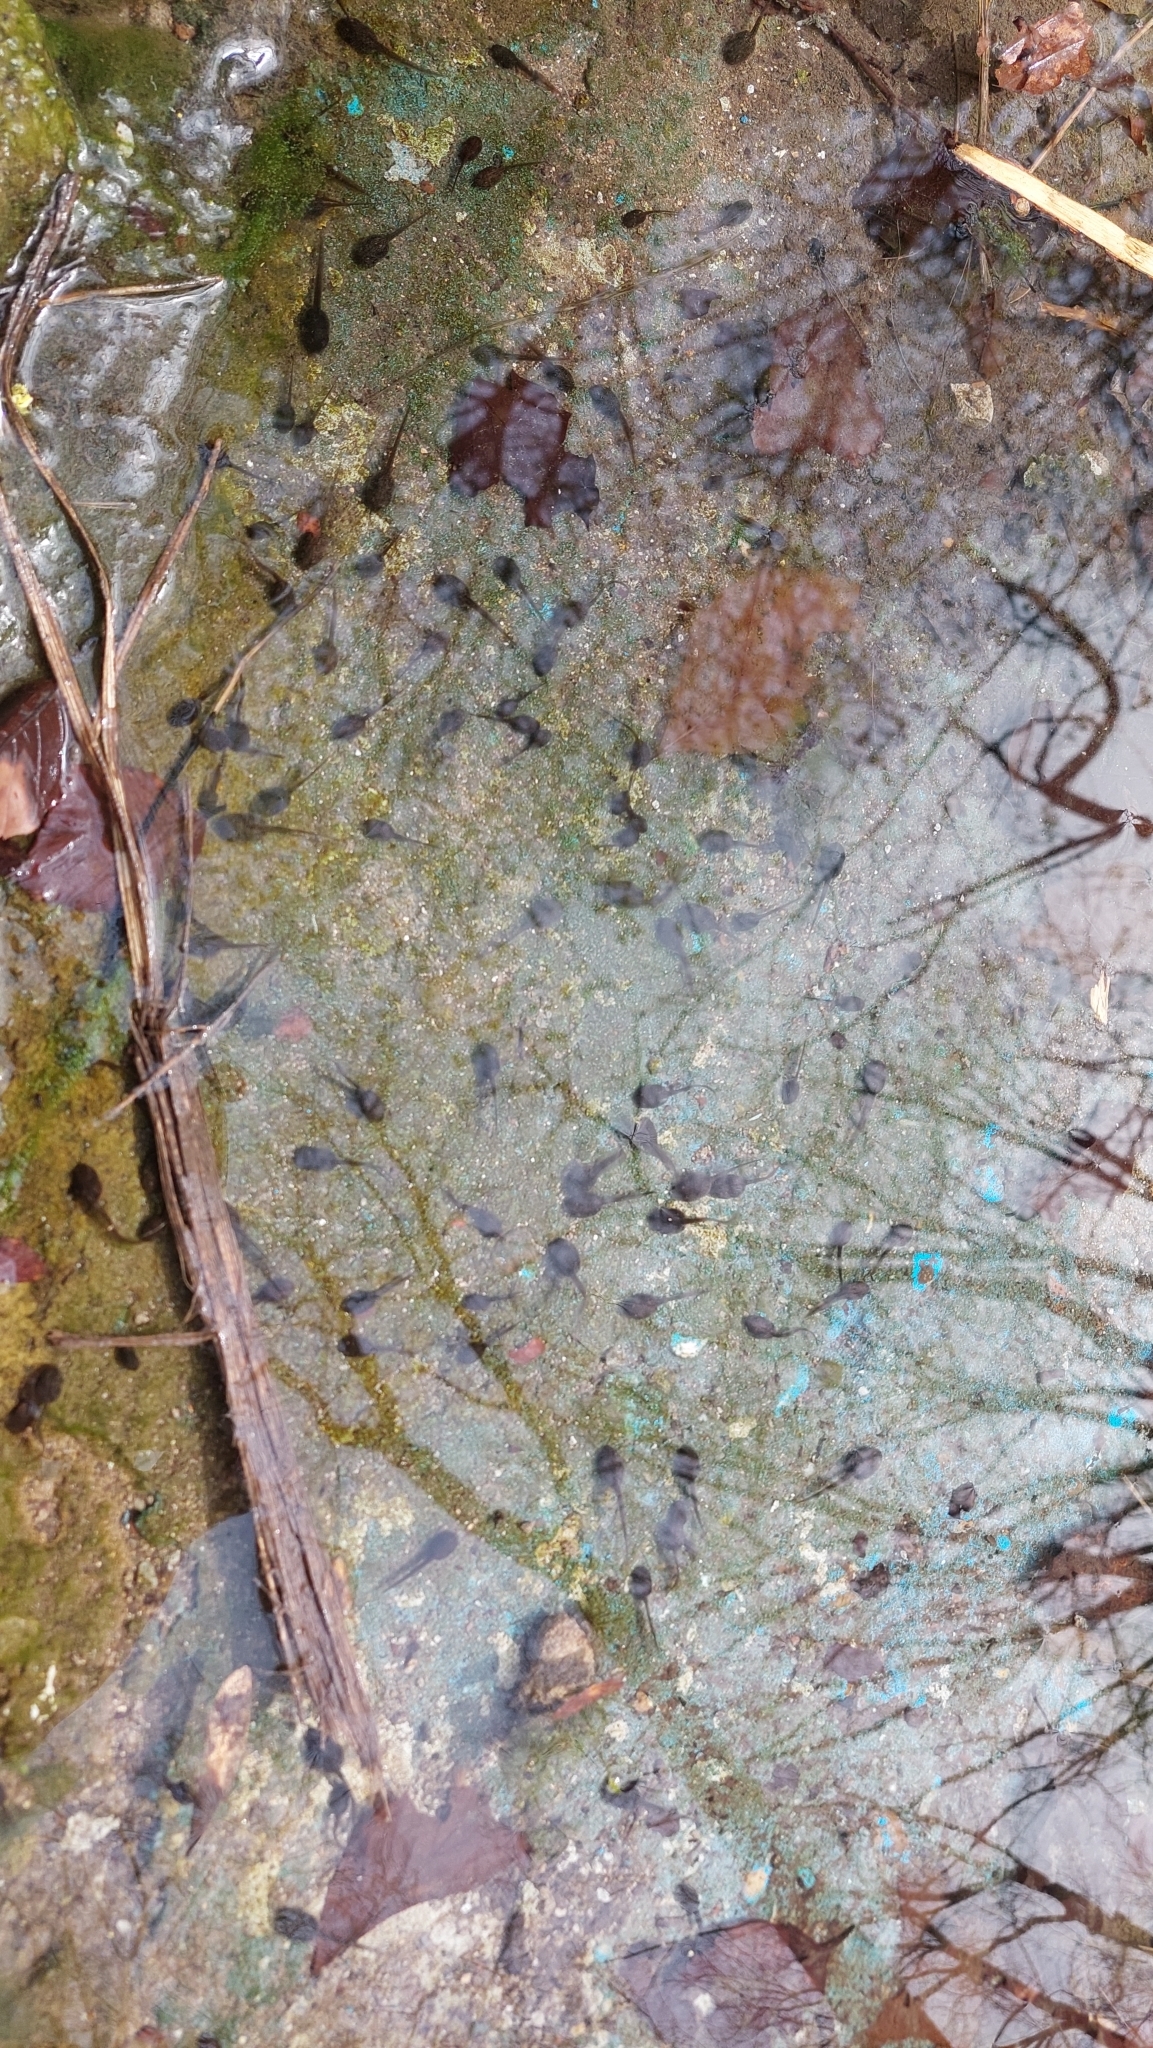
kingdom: Animalia
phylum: Chordata
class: Amphibia
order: Anura
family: Ranidae
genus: Rana
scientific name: Rana temporaria
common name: Common frog
